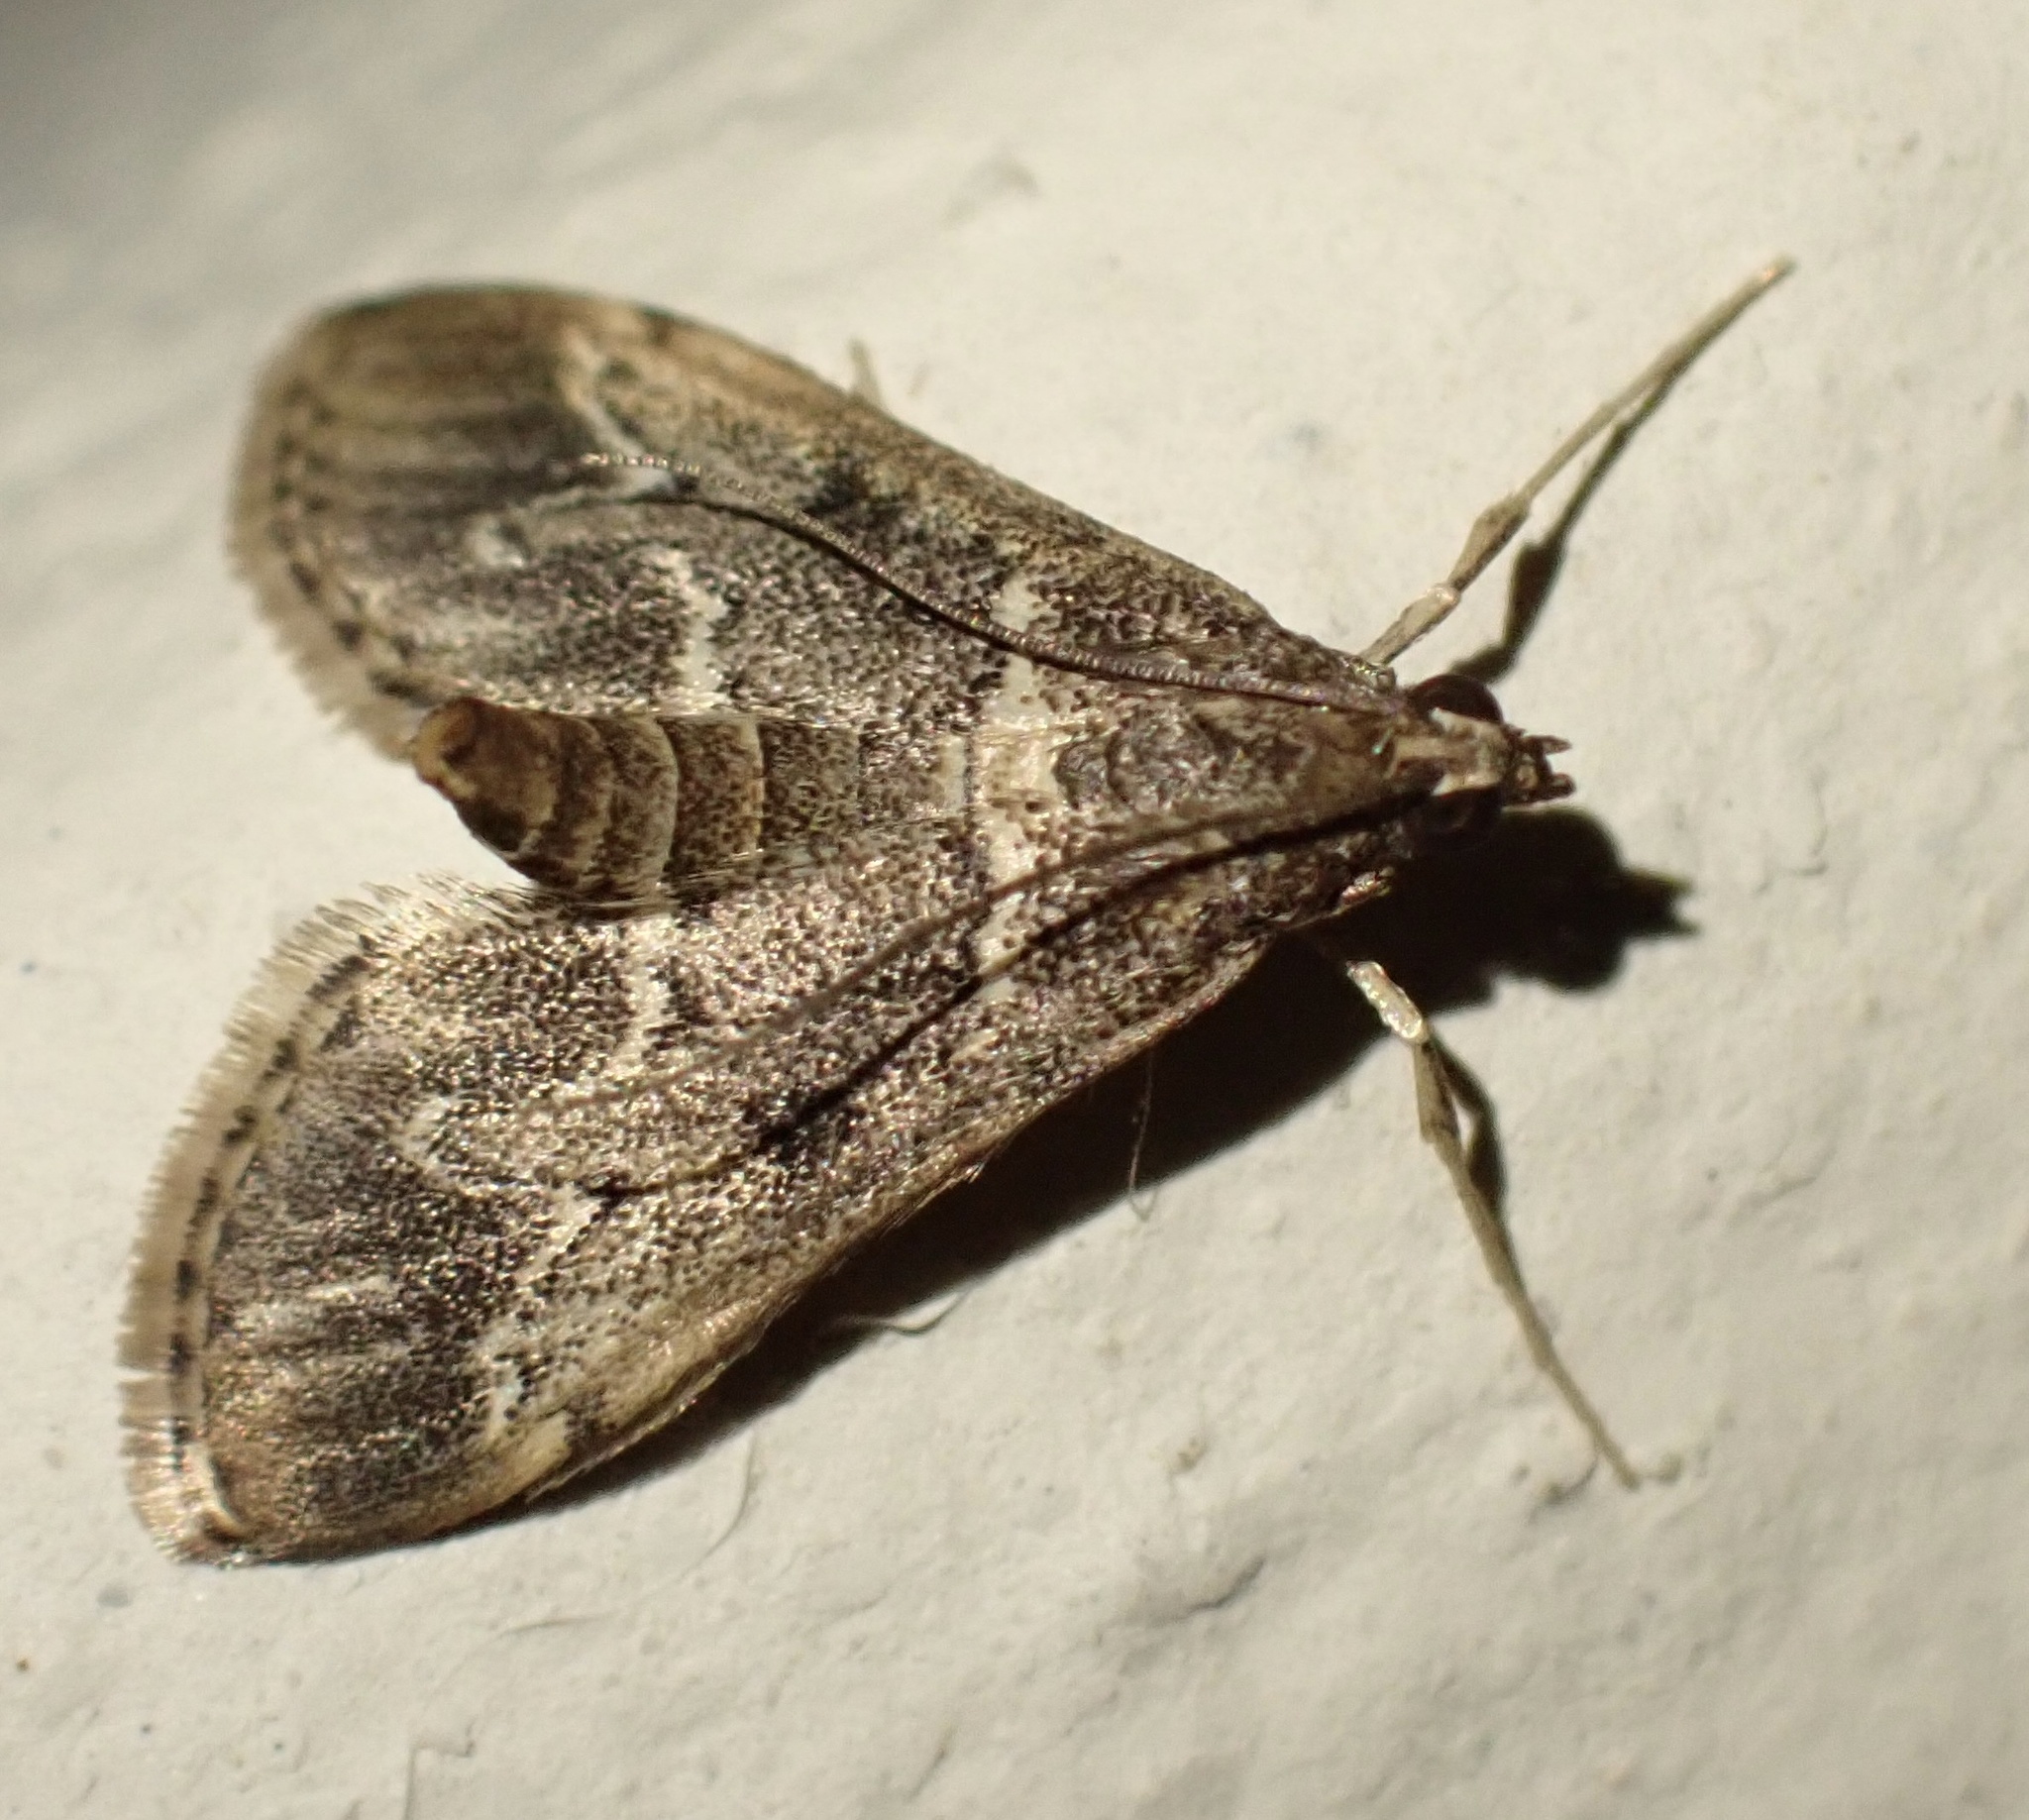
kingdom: Animalia
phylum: Arthropoda
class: Insecta
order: Lepidoptera
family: Crambidae
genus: Duponchelia
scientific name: Duponchelia fovealis
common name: Crambid moth
